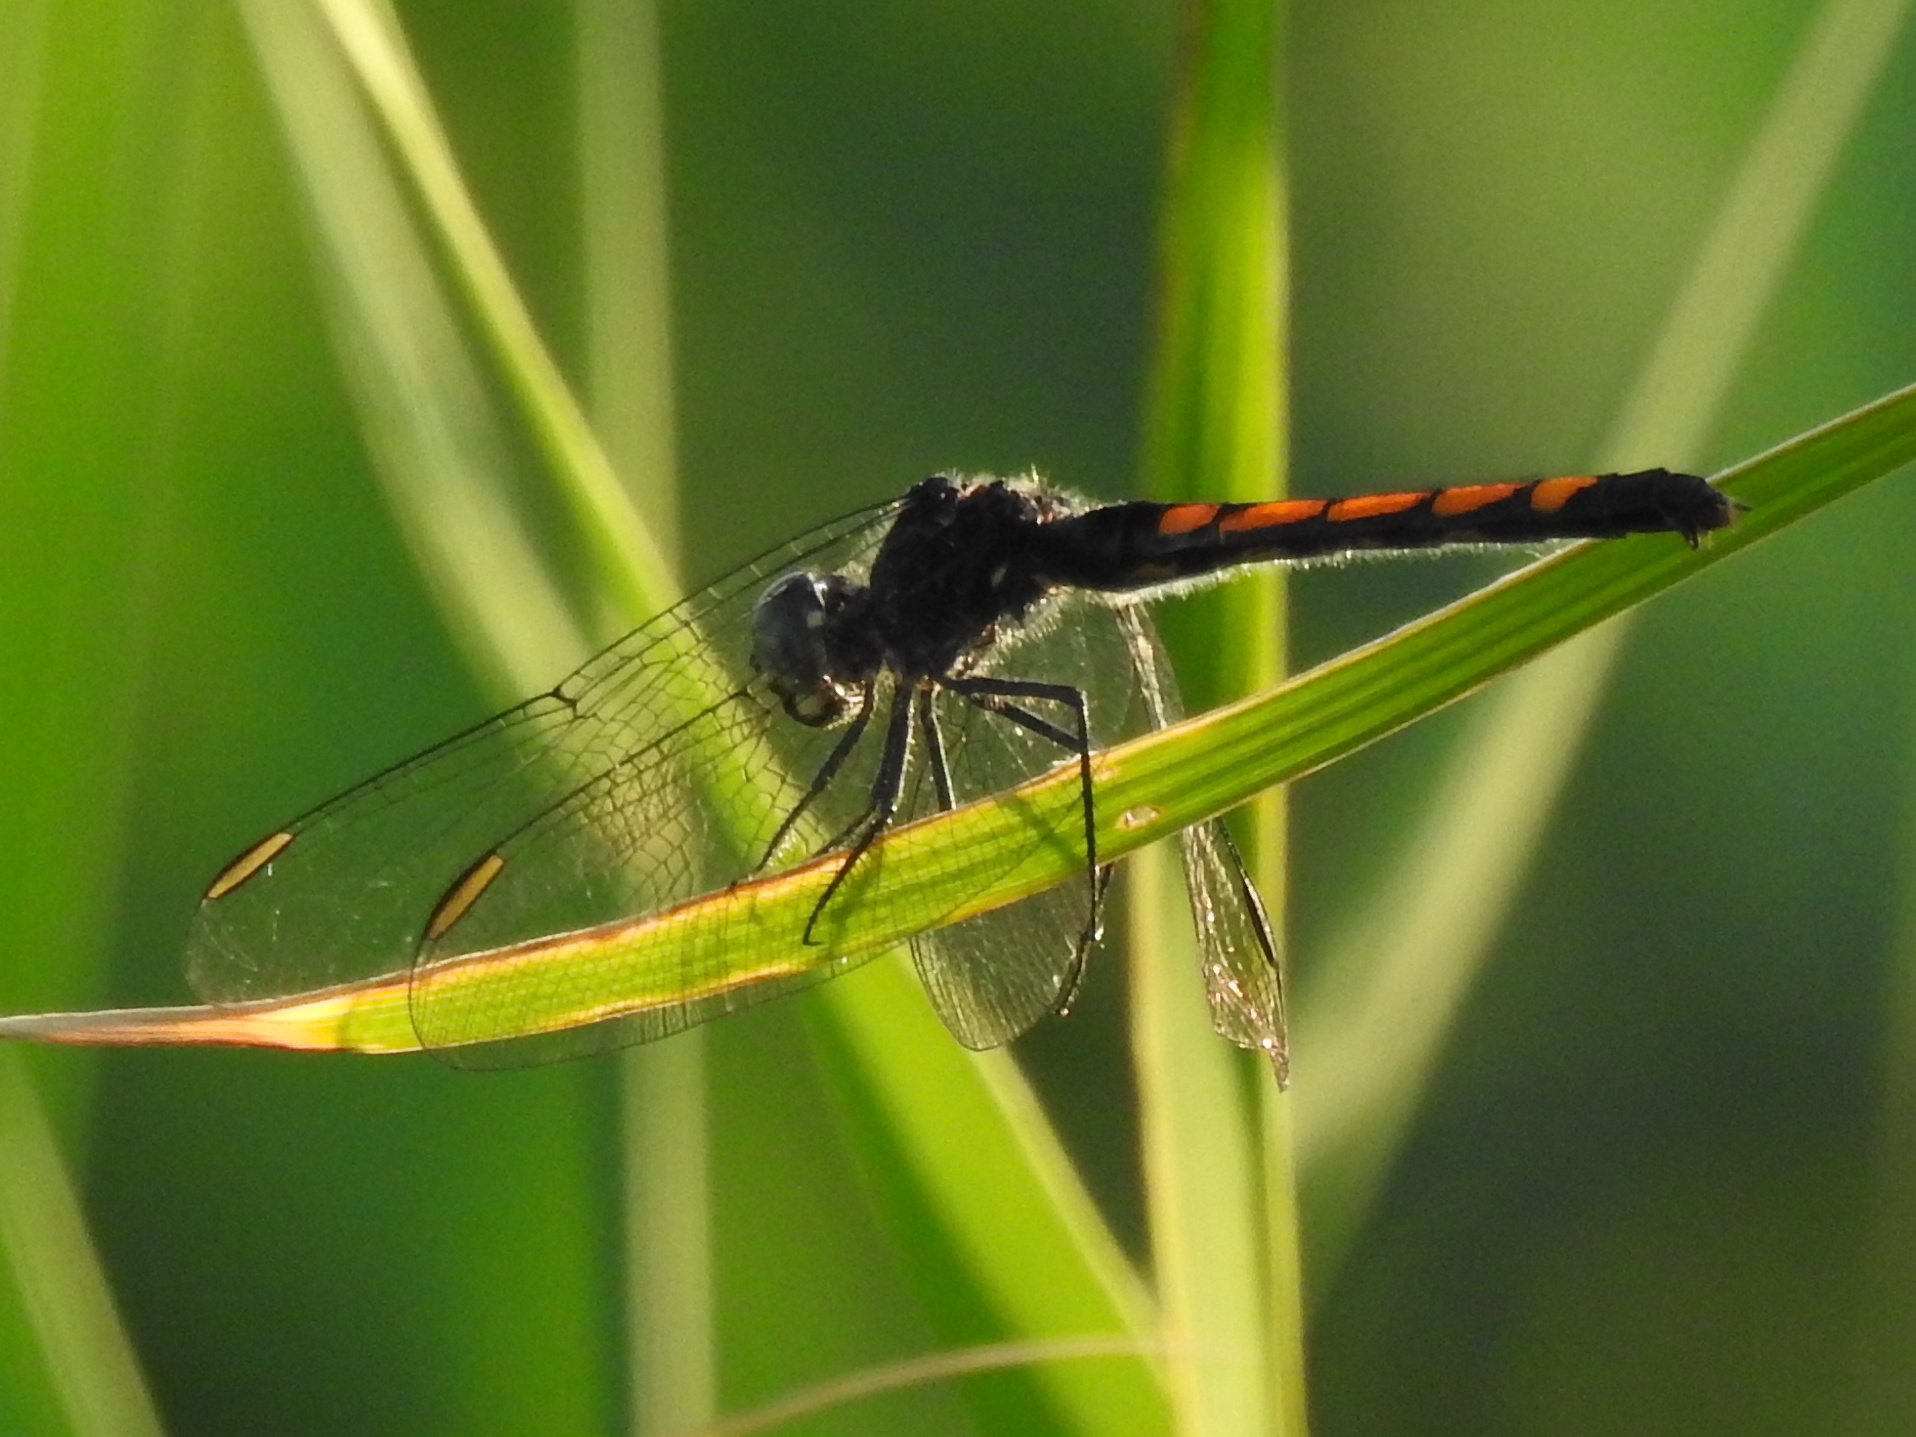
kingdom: Animalia
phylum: Arthropoda
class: Insecta
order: Odonata
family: Libellulidae
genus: Erythrodiplax
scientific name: Erythrodiplax berenice
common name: Seaside dragonlet
